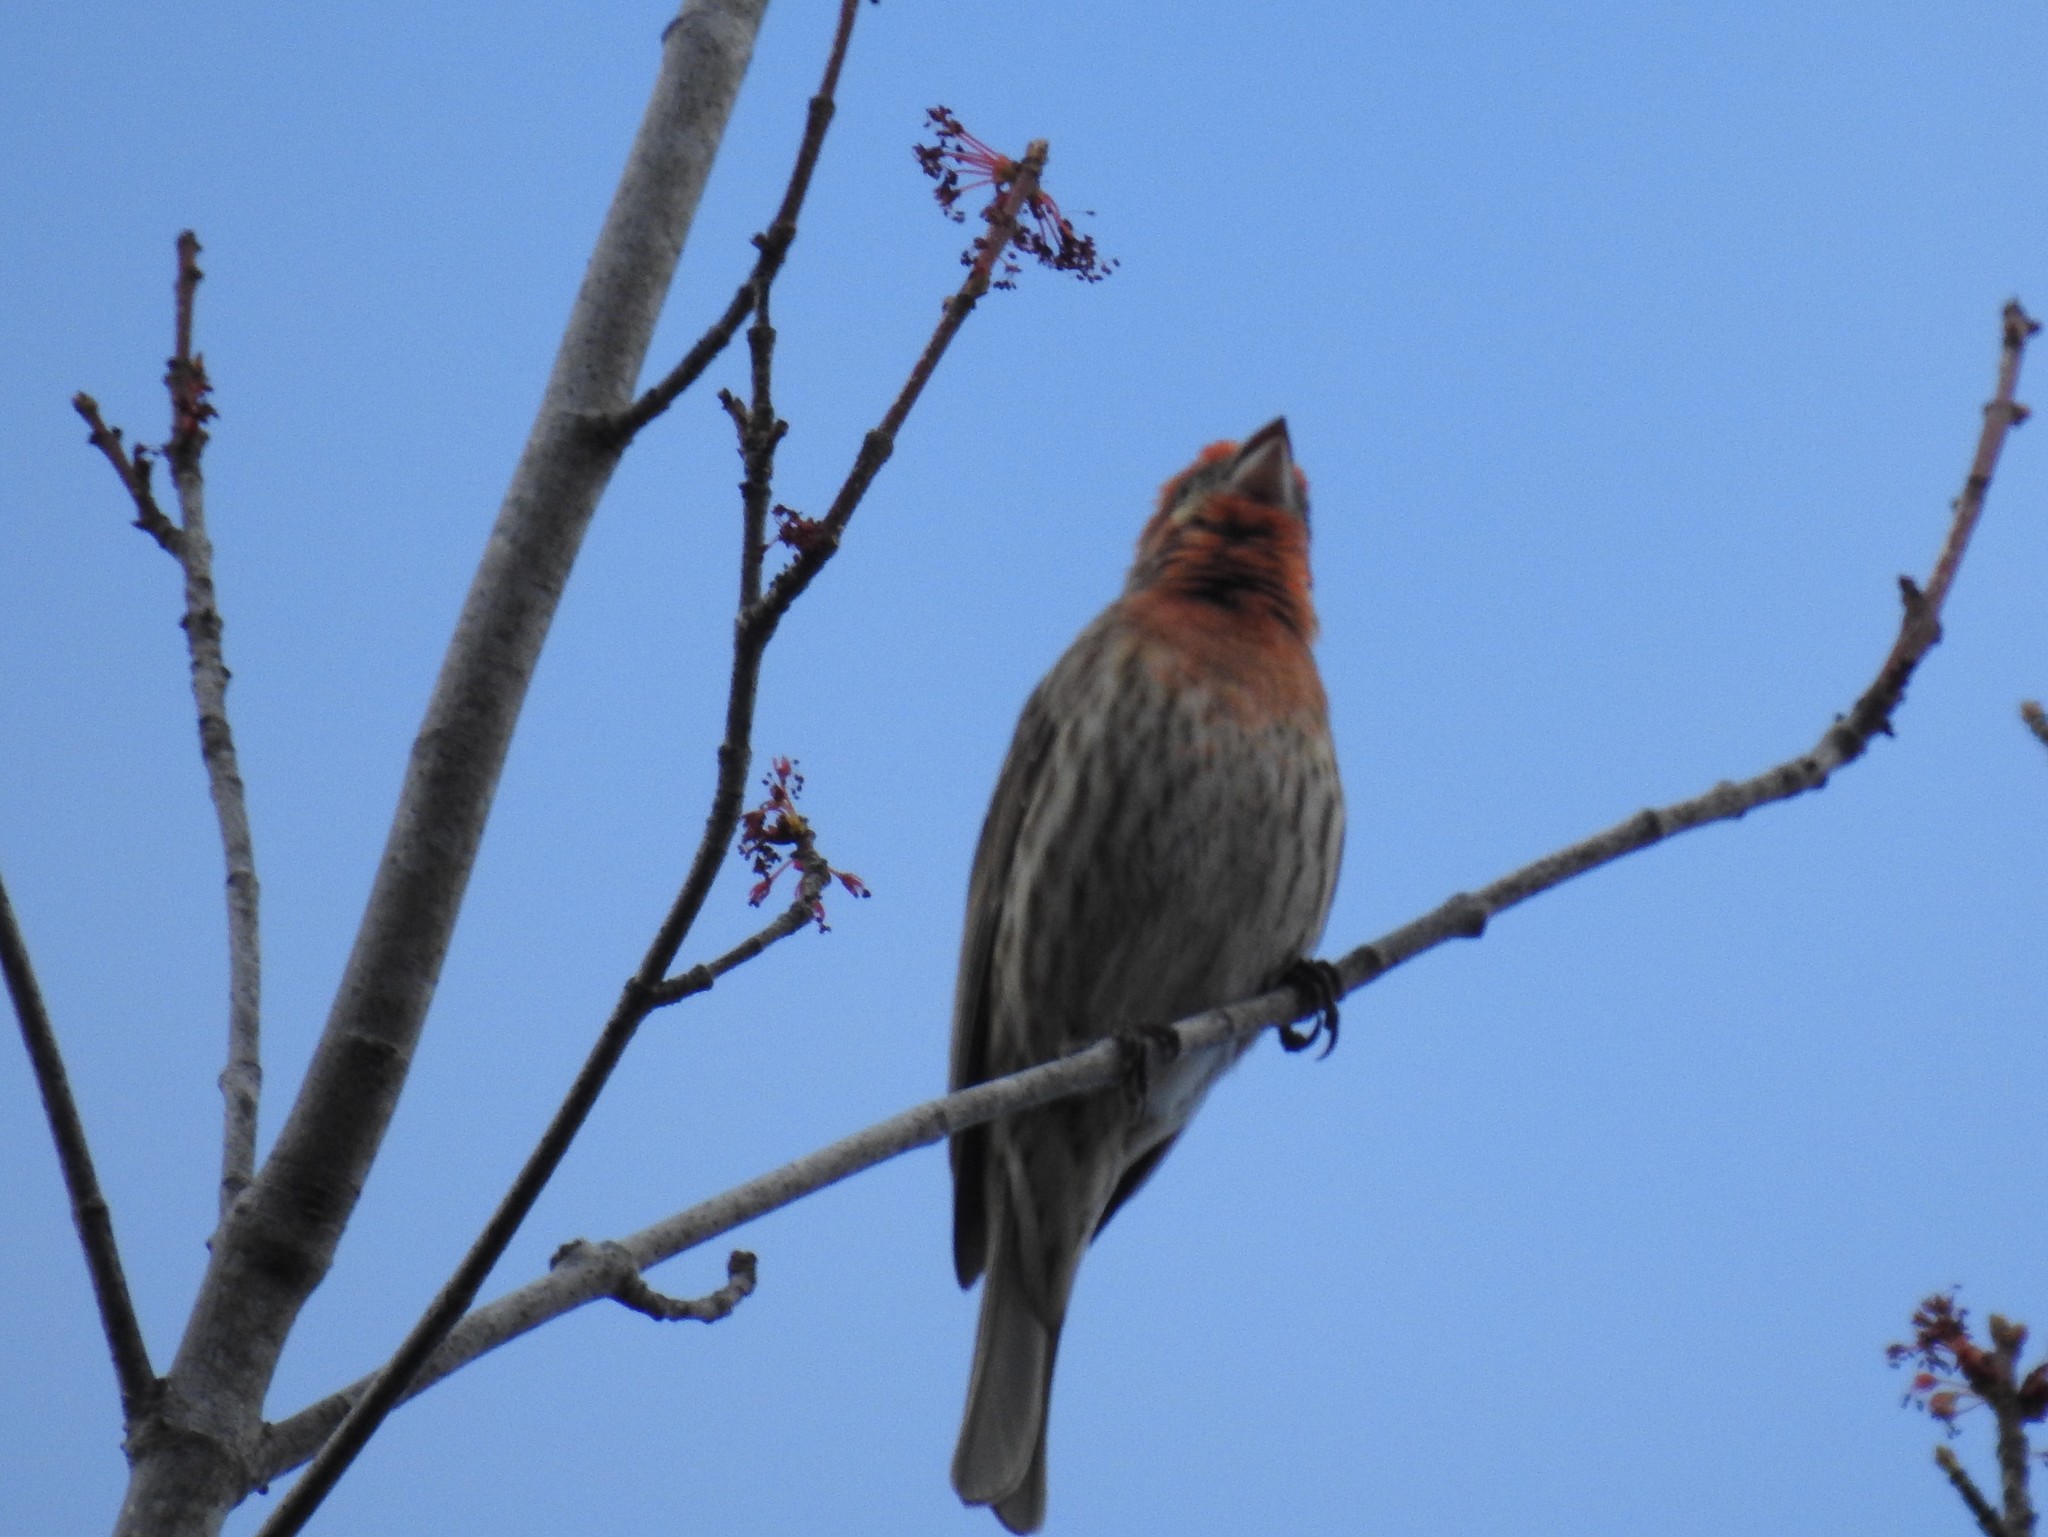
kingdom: Animalia
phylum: Chordata
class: Aves
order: Passeriformes
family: Fringillidae
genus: Haemorhous
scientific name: Haemorhous mexicanus
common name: House finch
